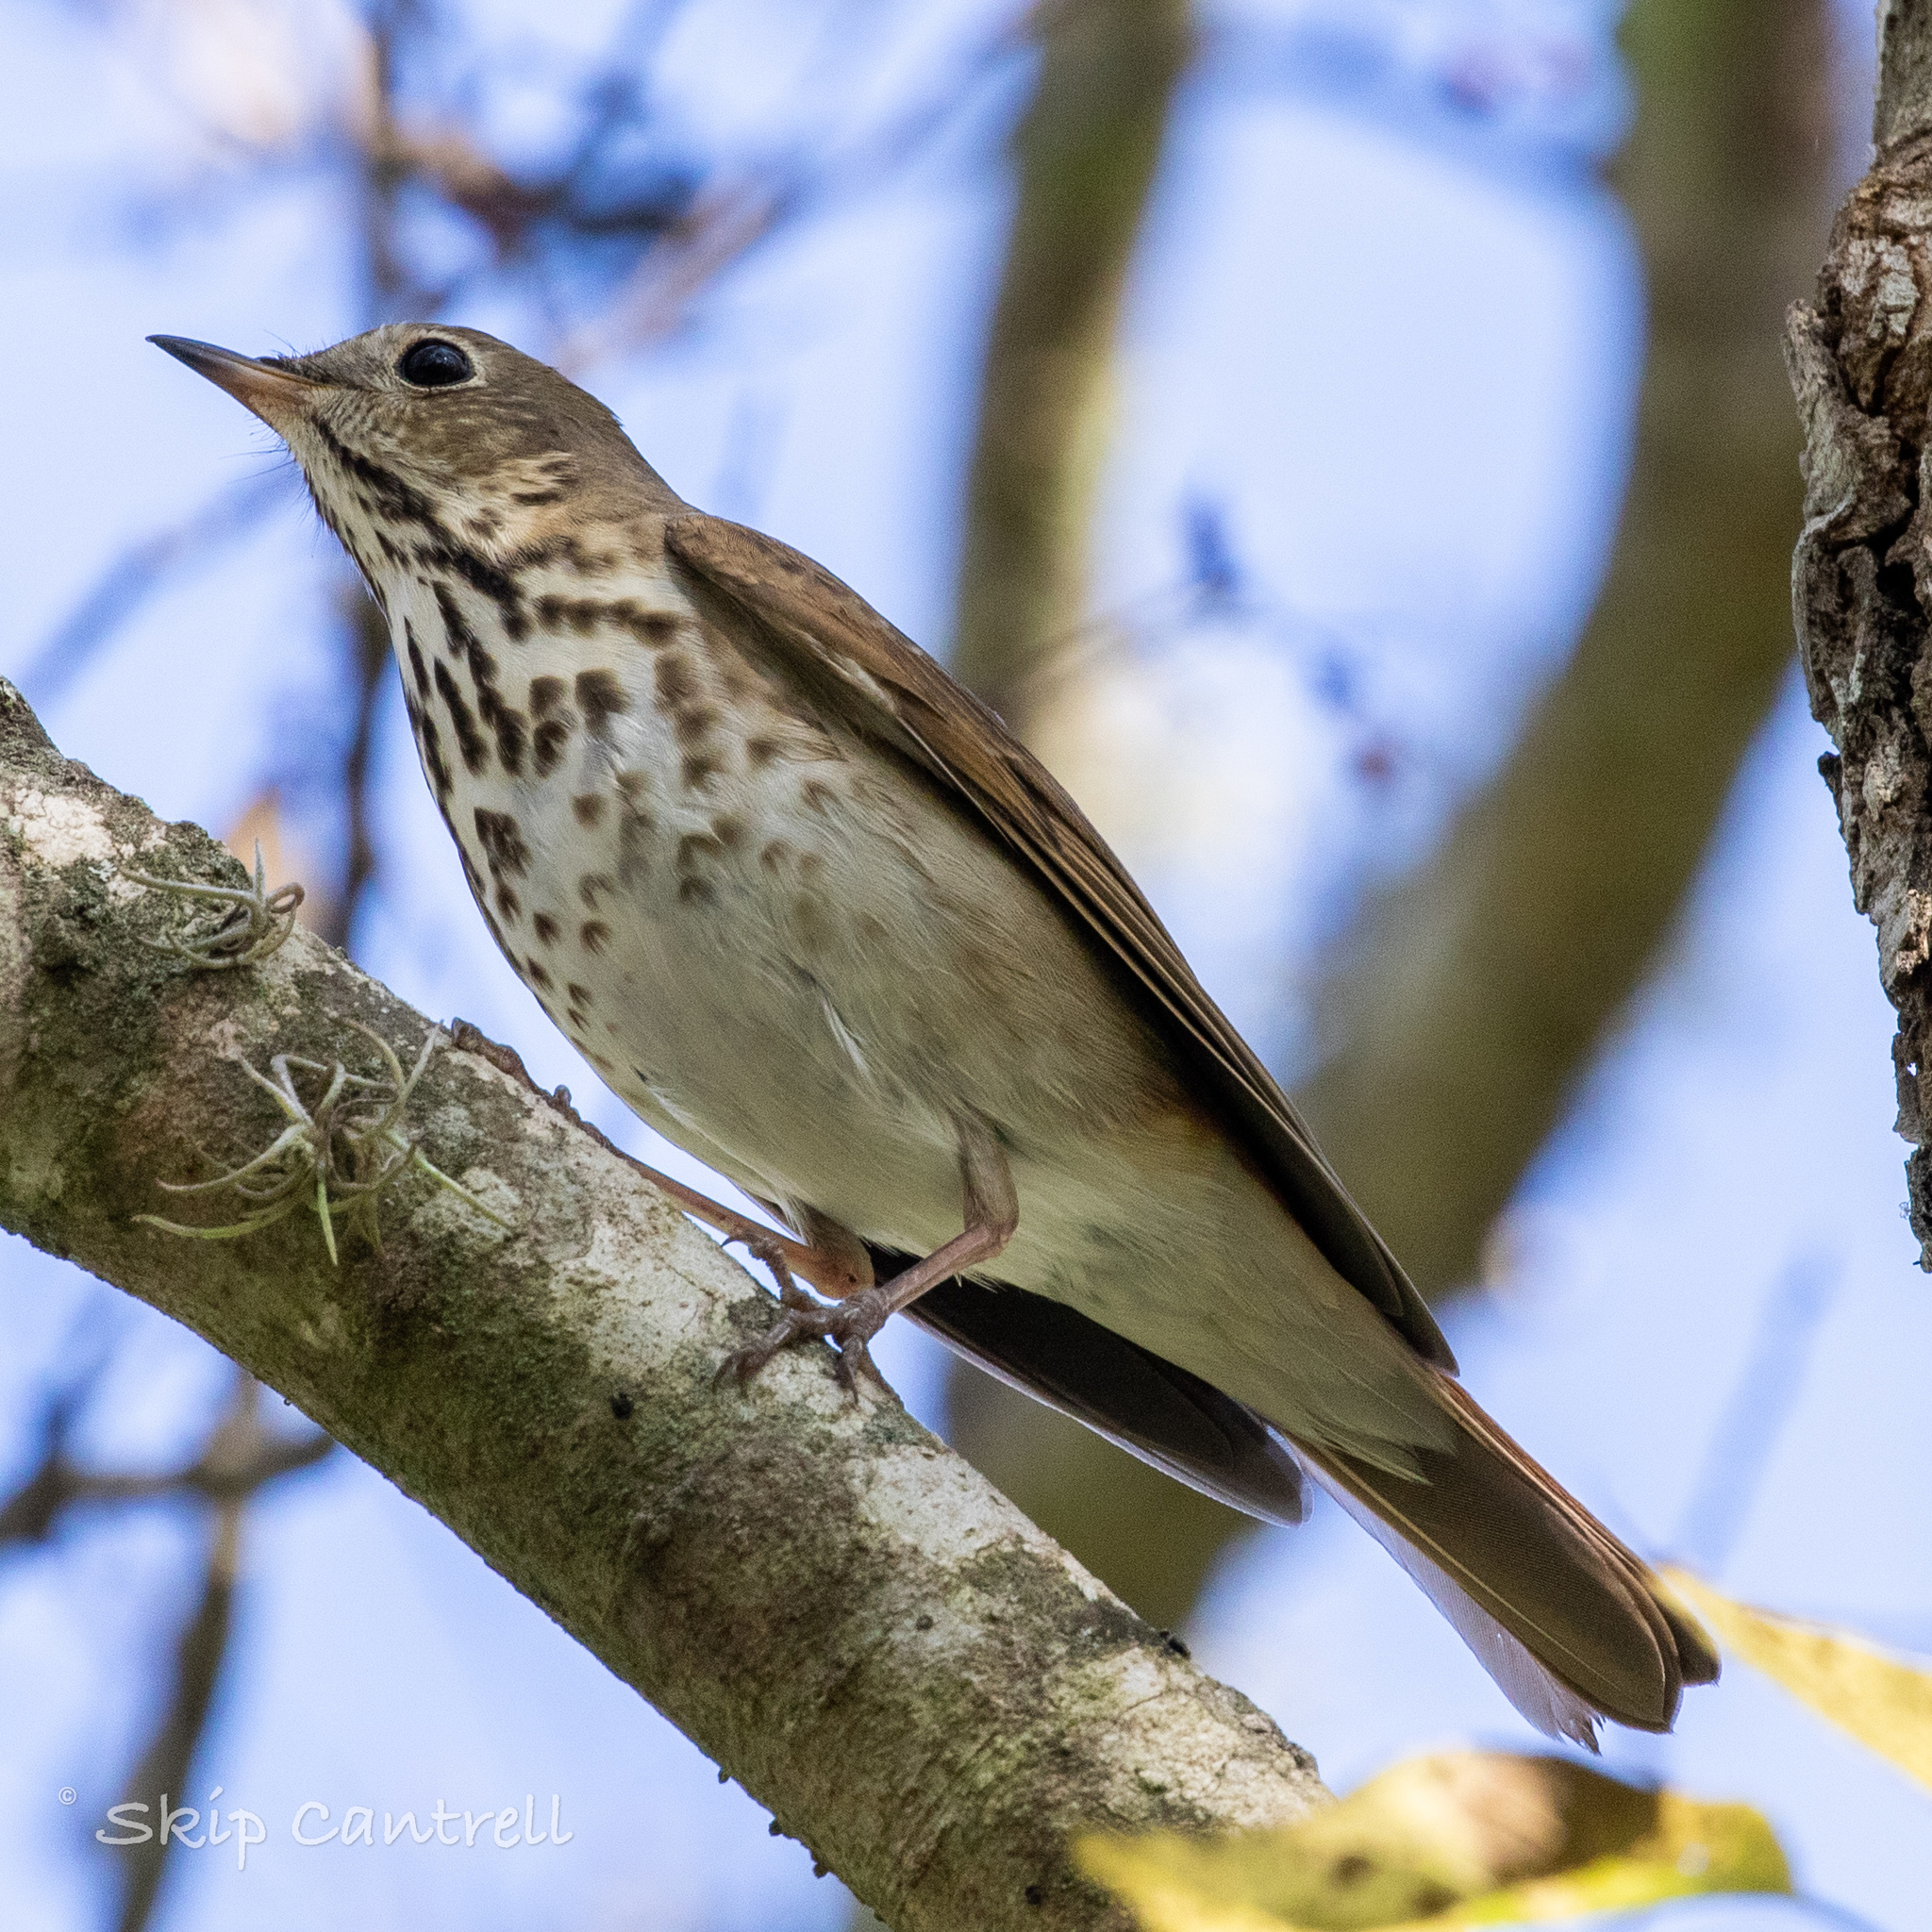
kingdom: Animalia
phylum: Chordata
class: Aves
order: Passeriformes
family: Turdidae
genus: Catharus
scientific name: Catharus guttatus
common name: Hermit thrush
